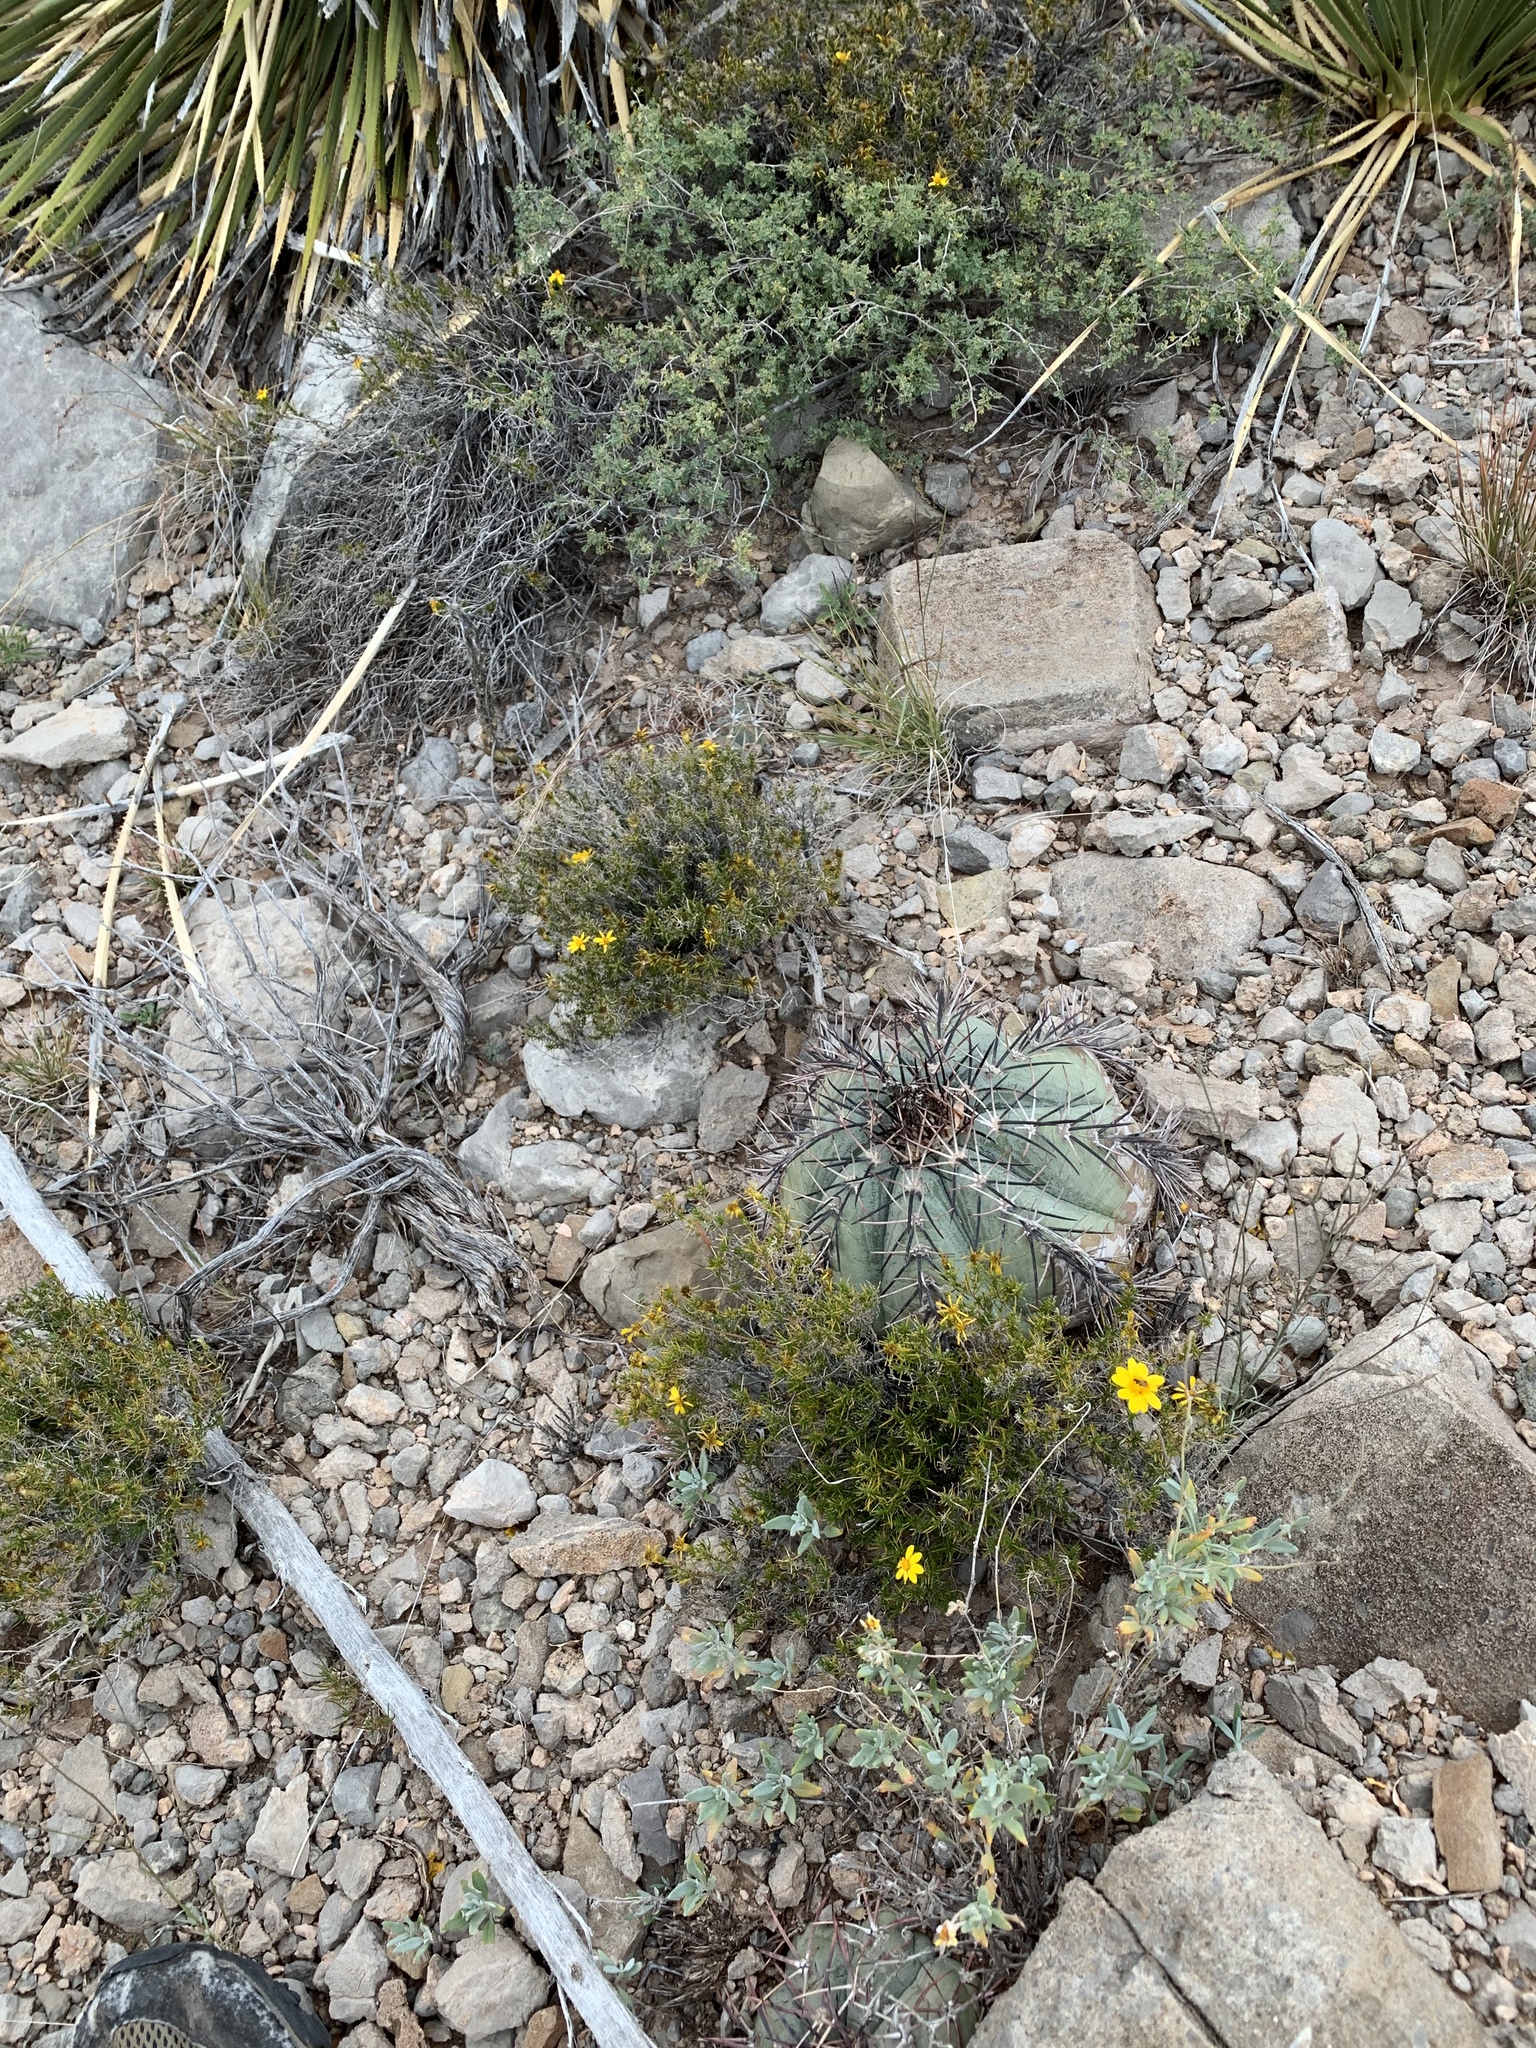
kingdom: Plantae
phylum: Tracheophyta
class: Magnoliopsida
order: Caryophyllales
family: Cactaceae
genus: Echinocactus
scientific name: Echinocactus horizonthalonius
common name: Devilshead
